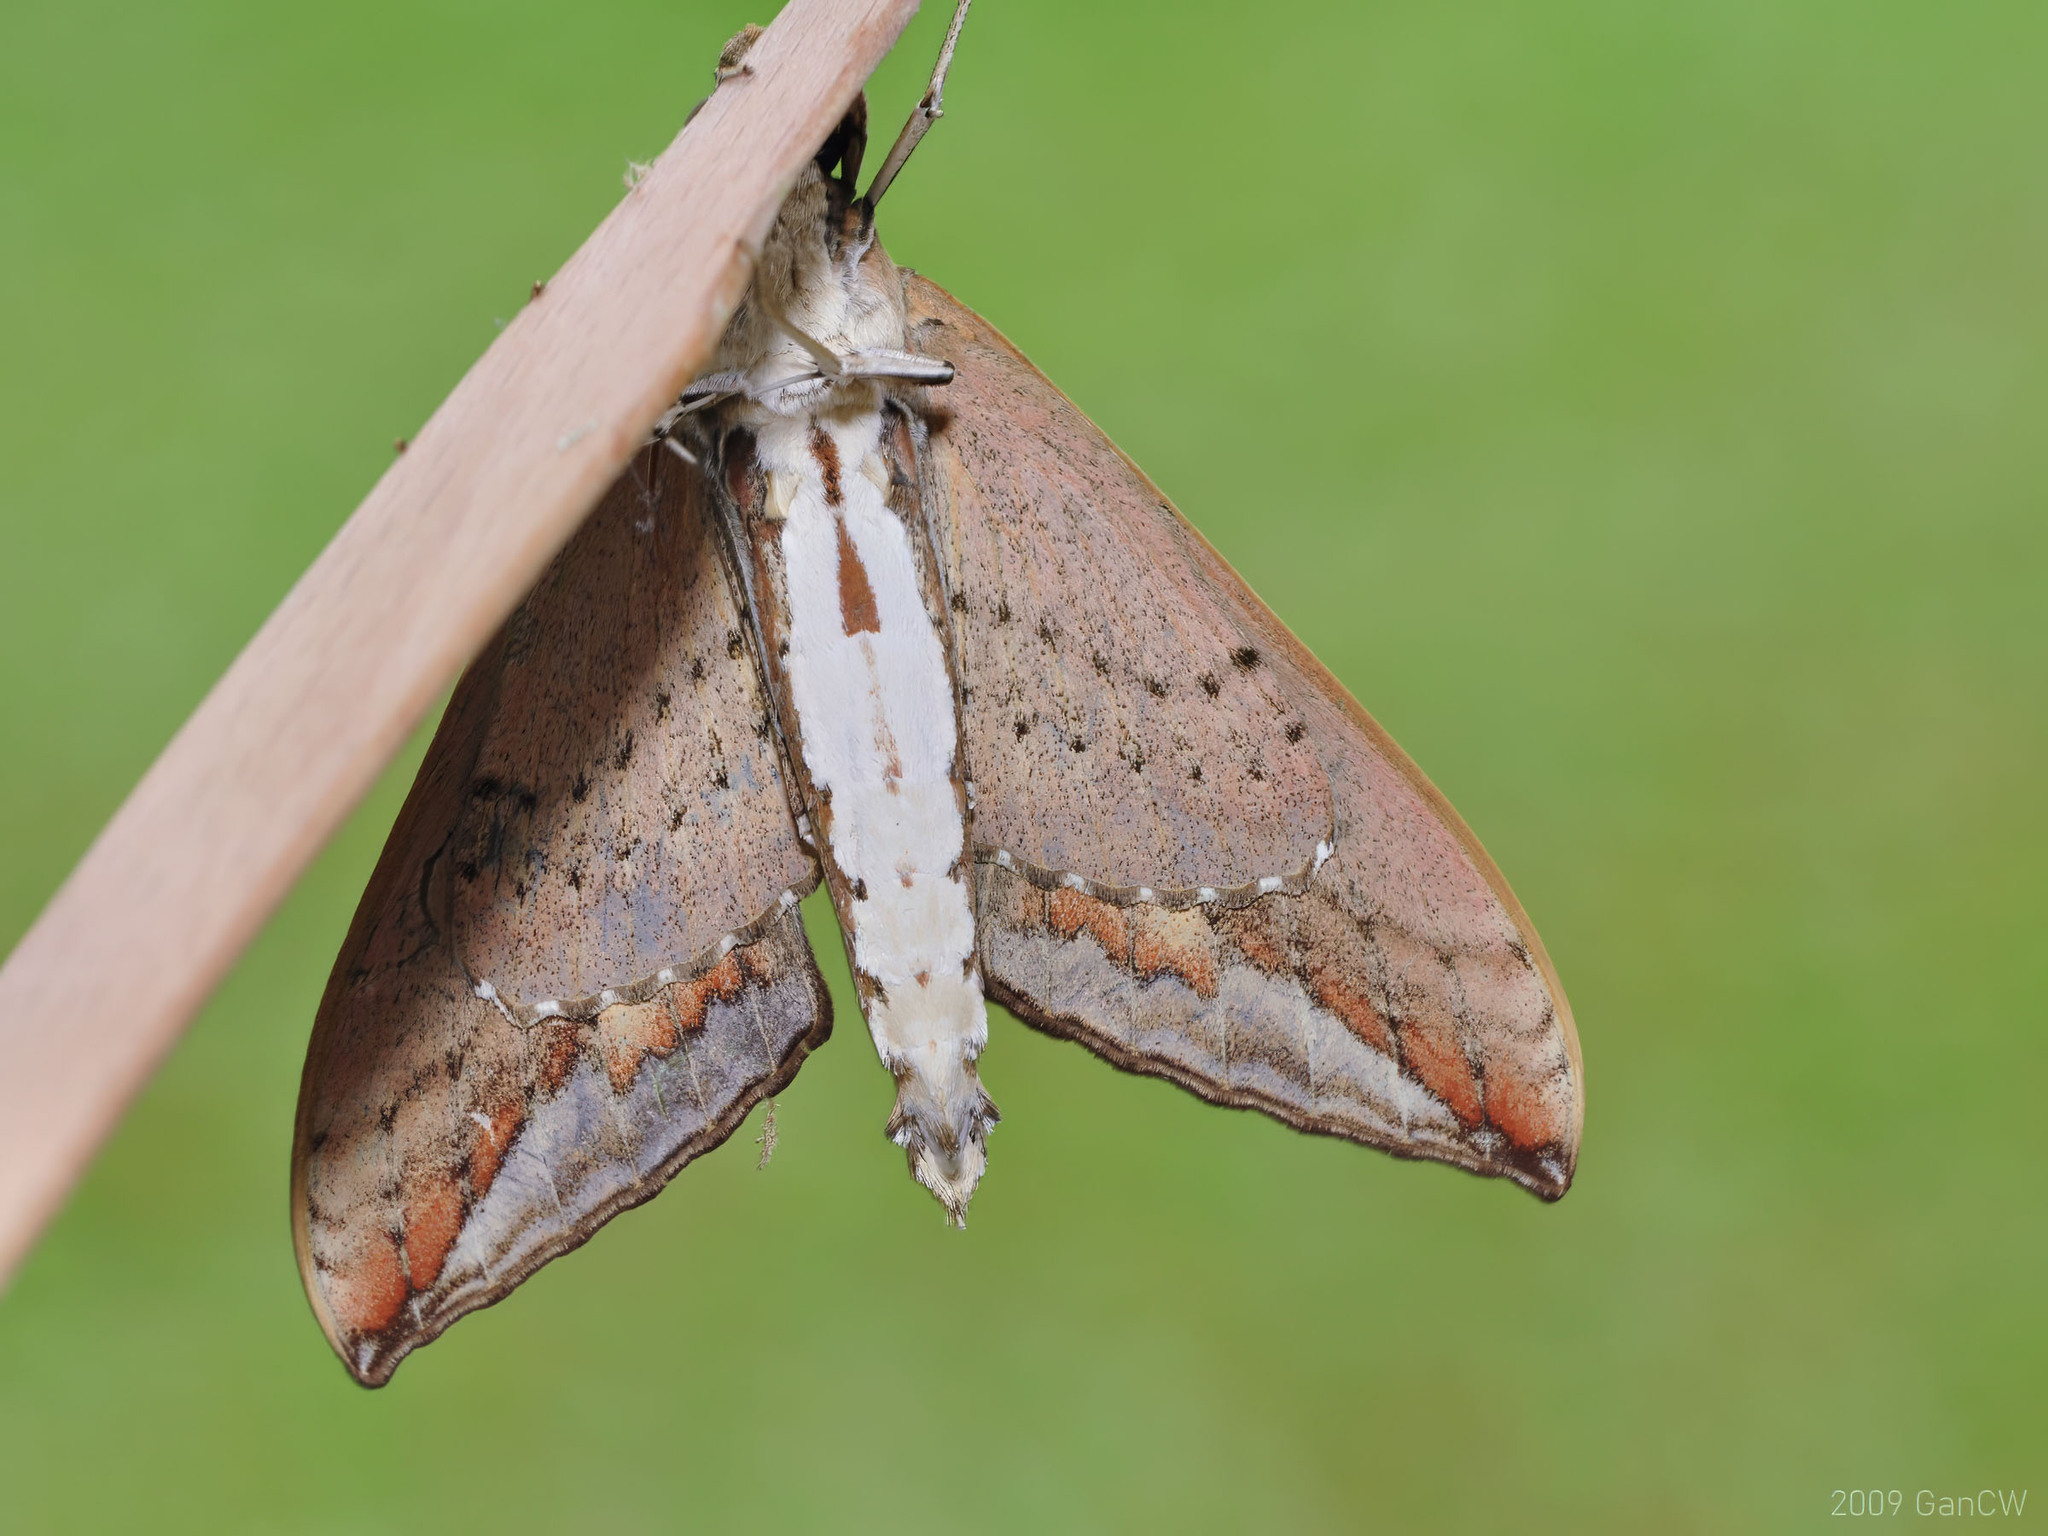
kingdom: Animalia
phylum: Arthropoda
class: Insecta
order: Lepidoptera
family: Sphingidae
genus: Elibia
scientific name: Elibia dolichus
